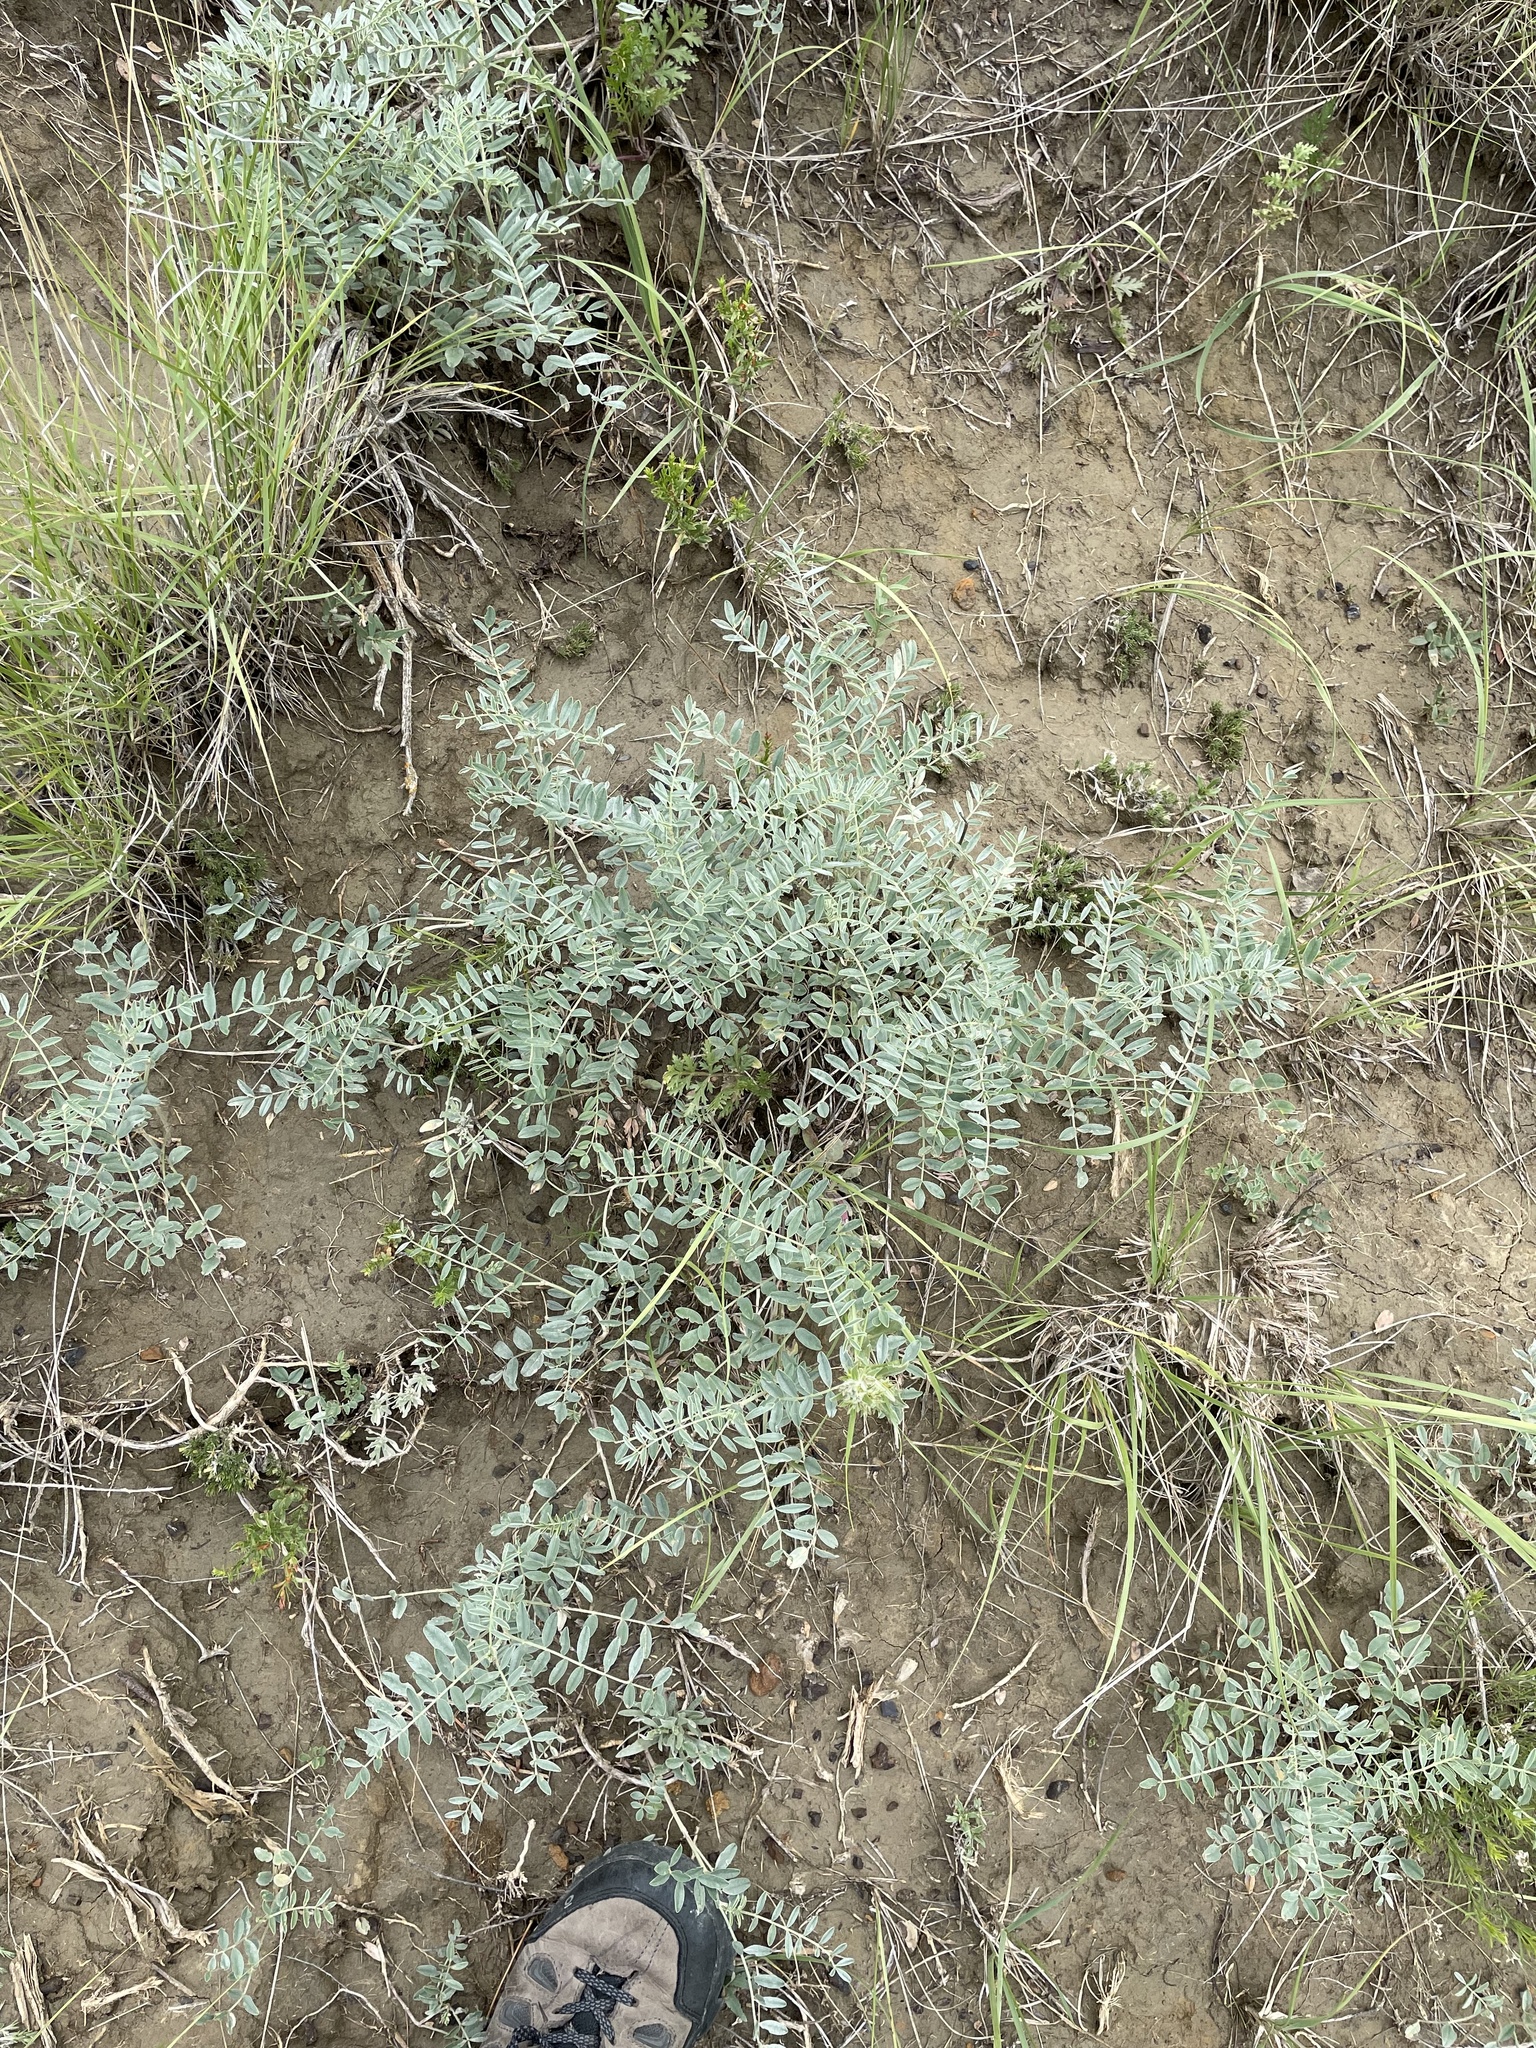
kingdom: Plantae
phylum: Tracheophyta
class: Magnoliopsida
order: Fabales
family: Fabaceae
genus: Hedysarum
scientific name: Hedysarum boreale
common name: Northern sweet-vetch
